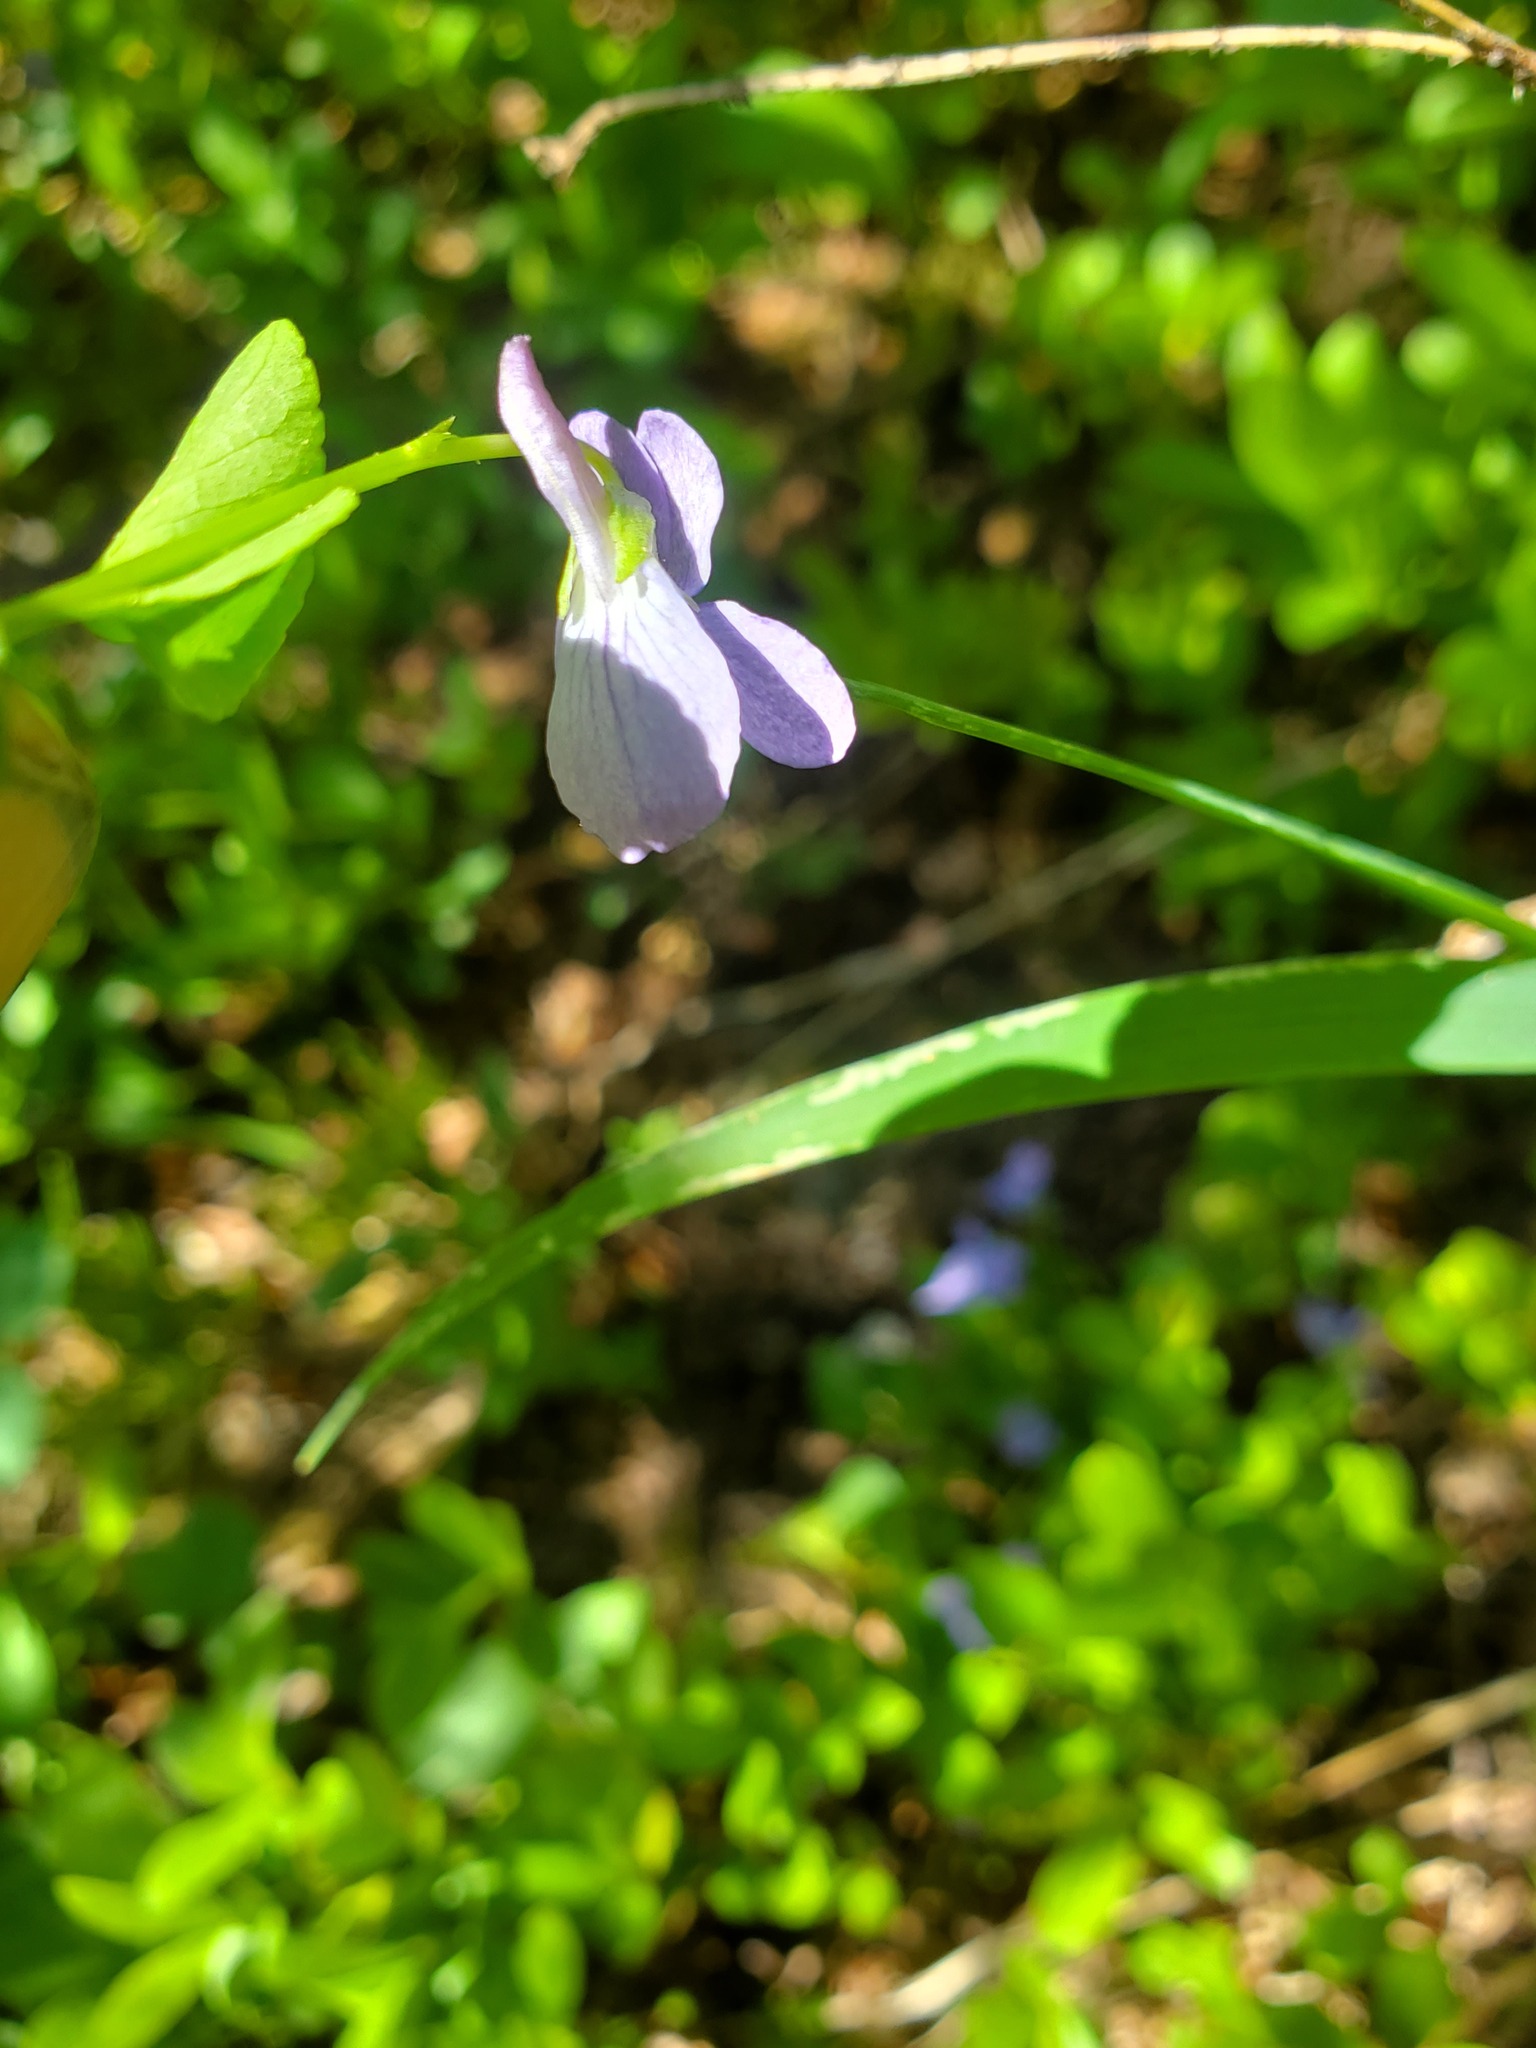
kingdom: Plantae
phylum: Tracheophyta
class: Magnoliopsida
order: Malpighiales
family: Violaceae
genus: Viola
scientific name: Viola adunca
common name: Sand violet
